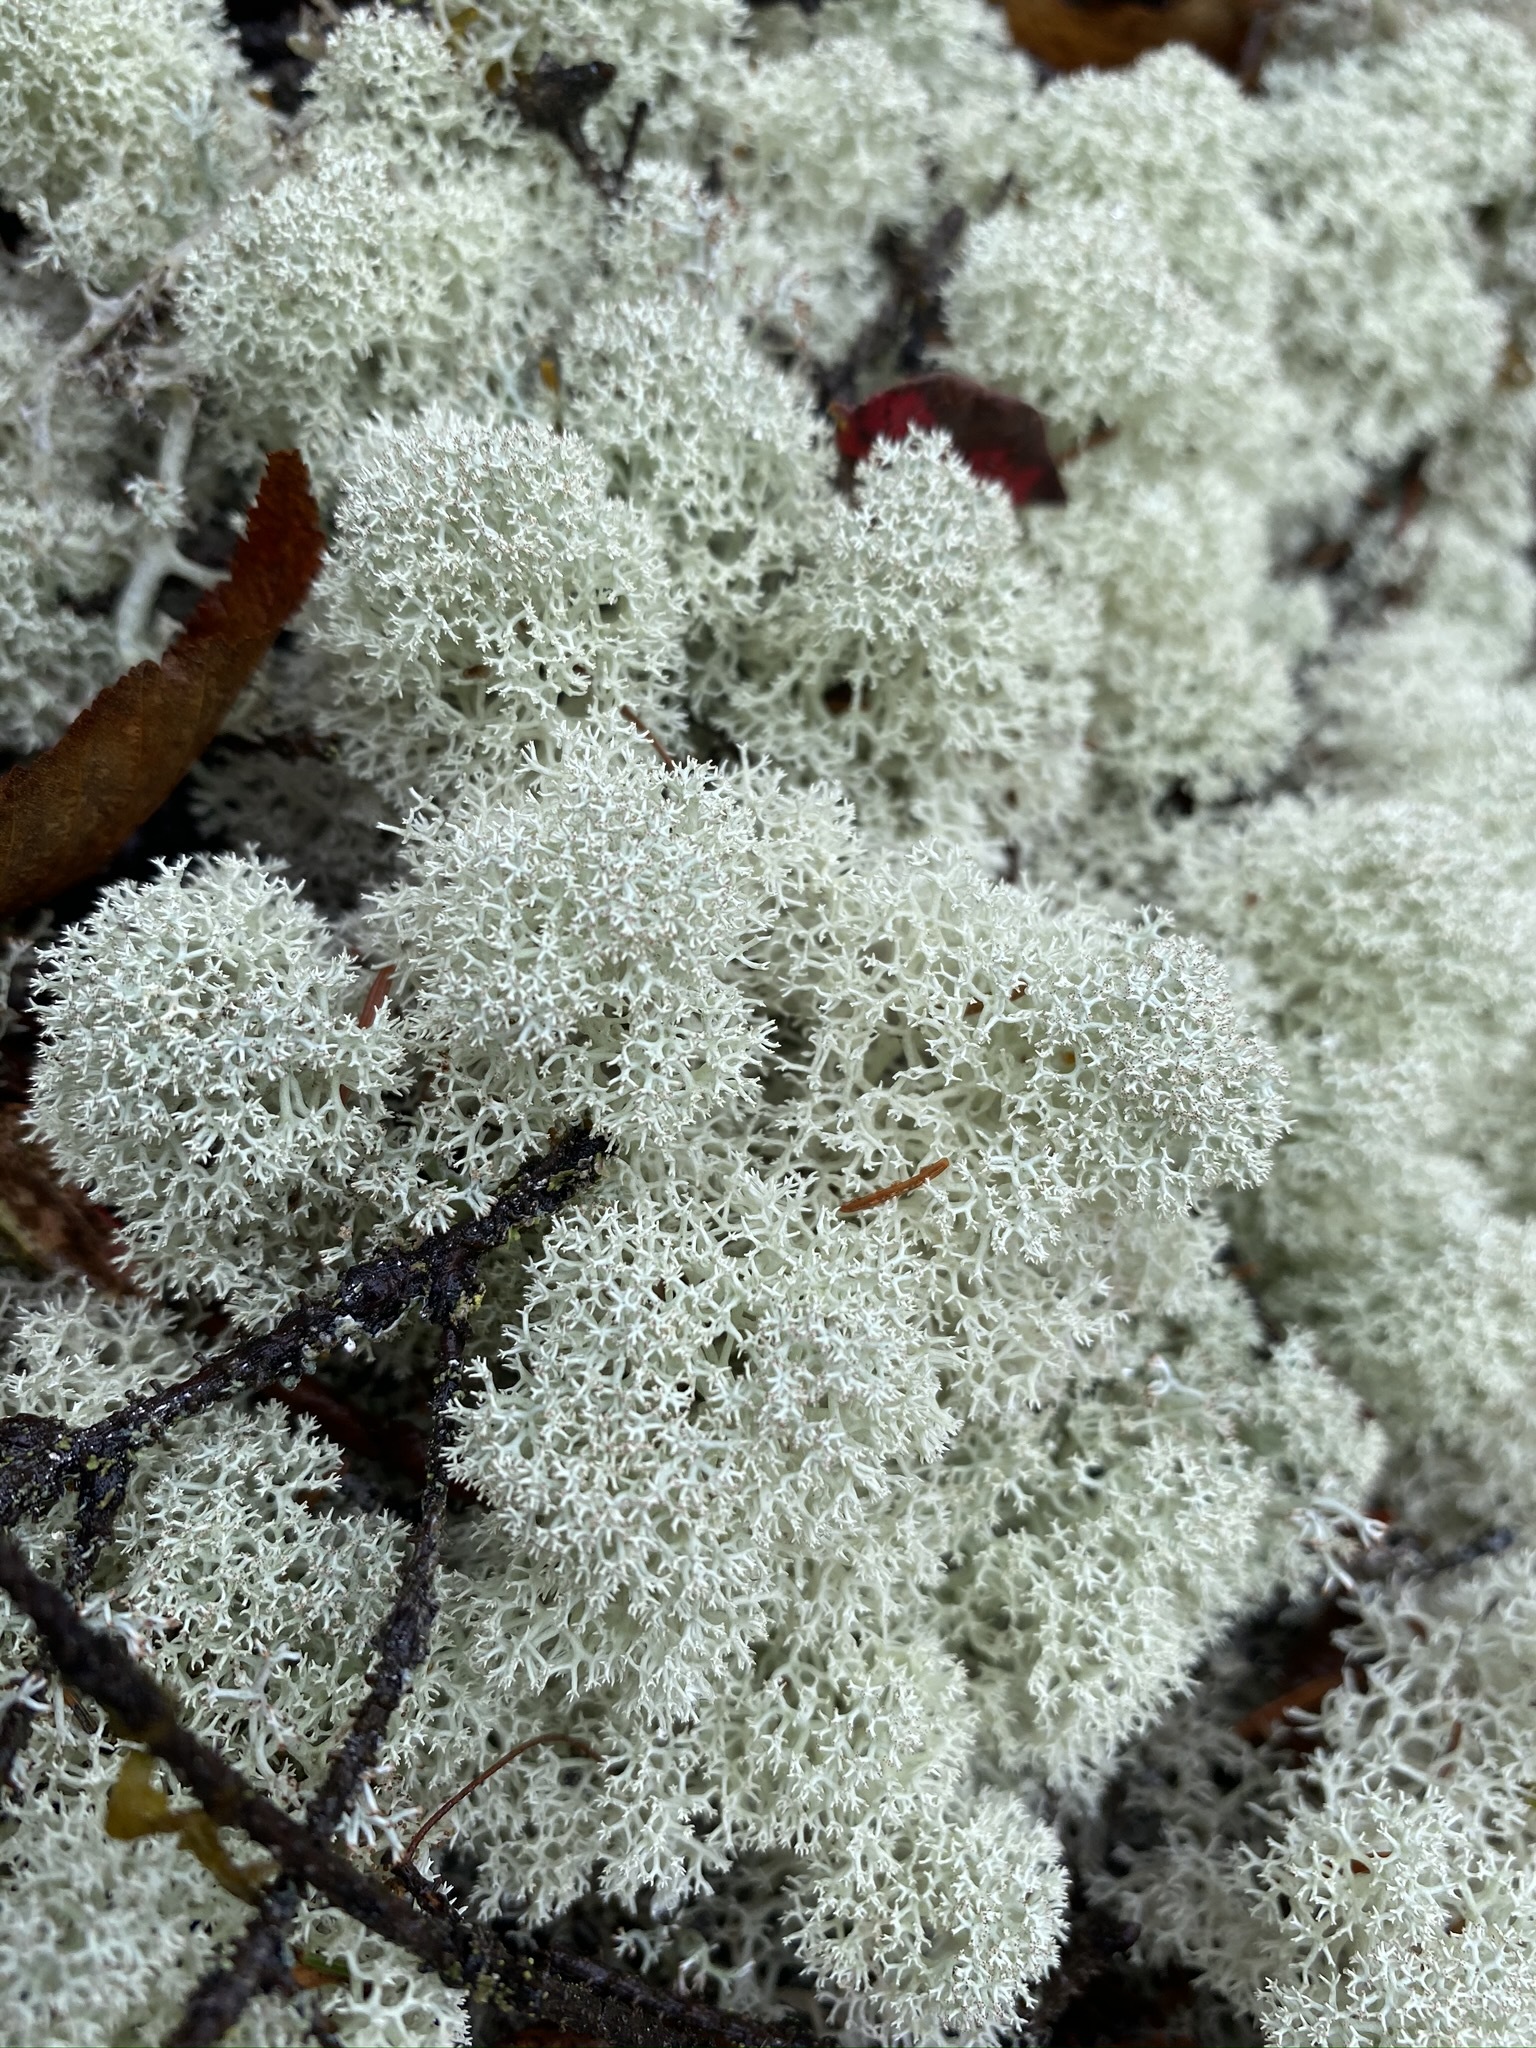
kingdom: Fungi
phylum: Ascomycota
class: Lecanoromycetes
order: Lecanorales
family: Cladoniaceae
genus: Cladonia
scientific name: Cladonia stellaris
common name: Star-tipped reindeer lichen
